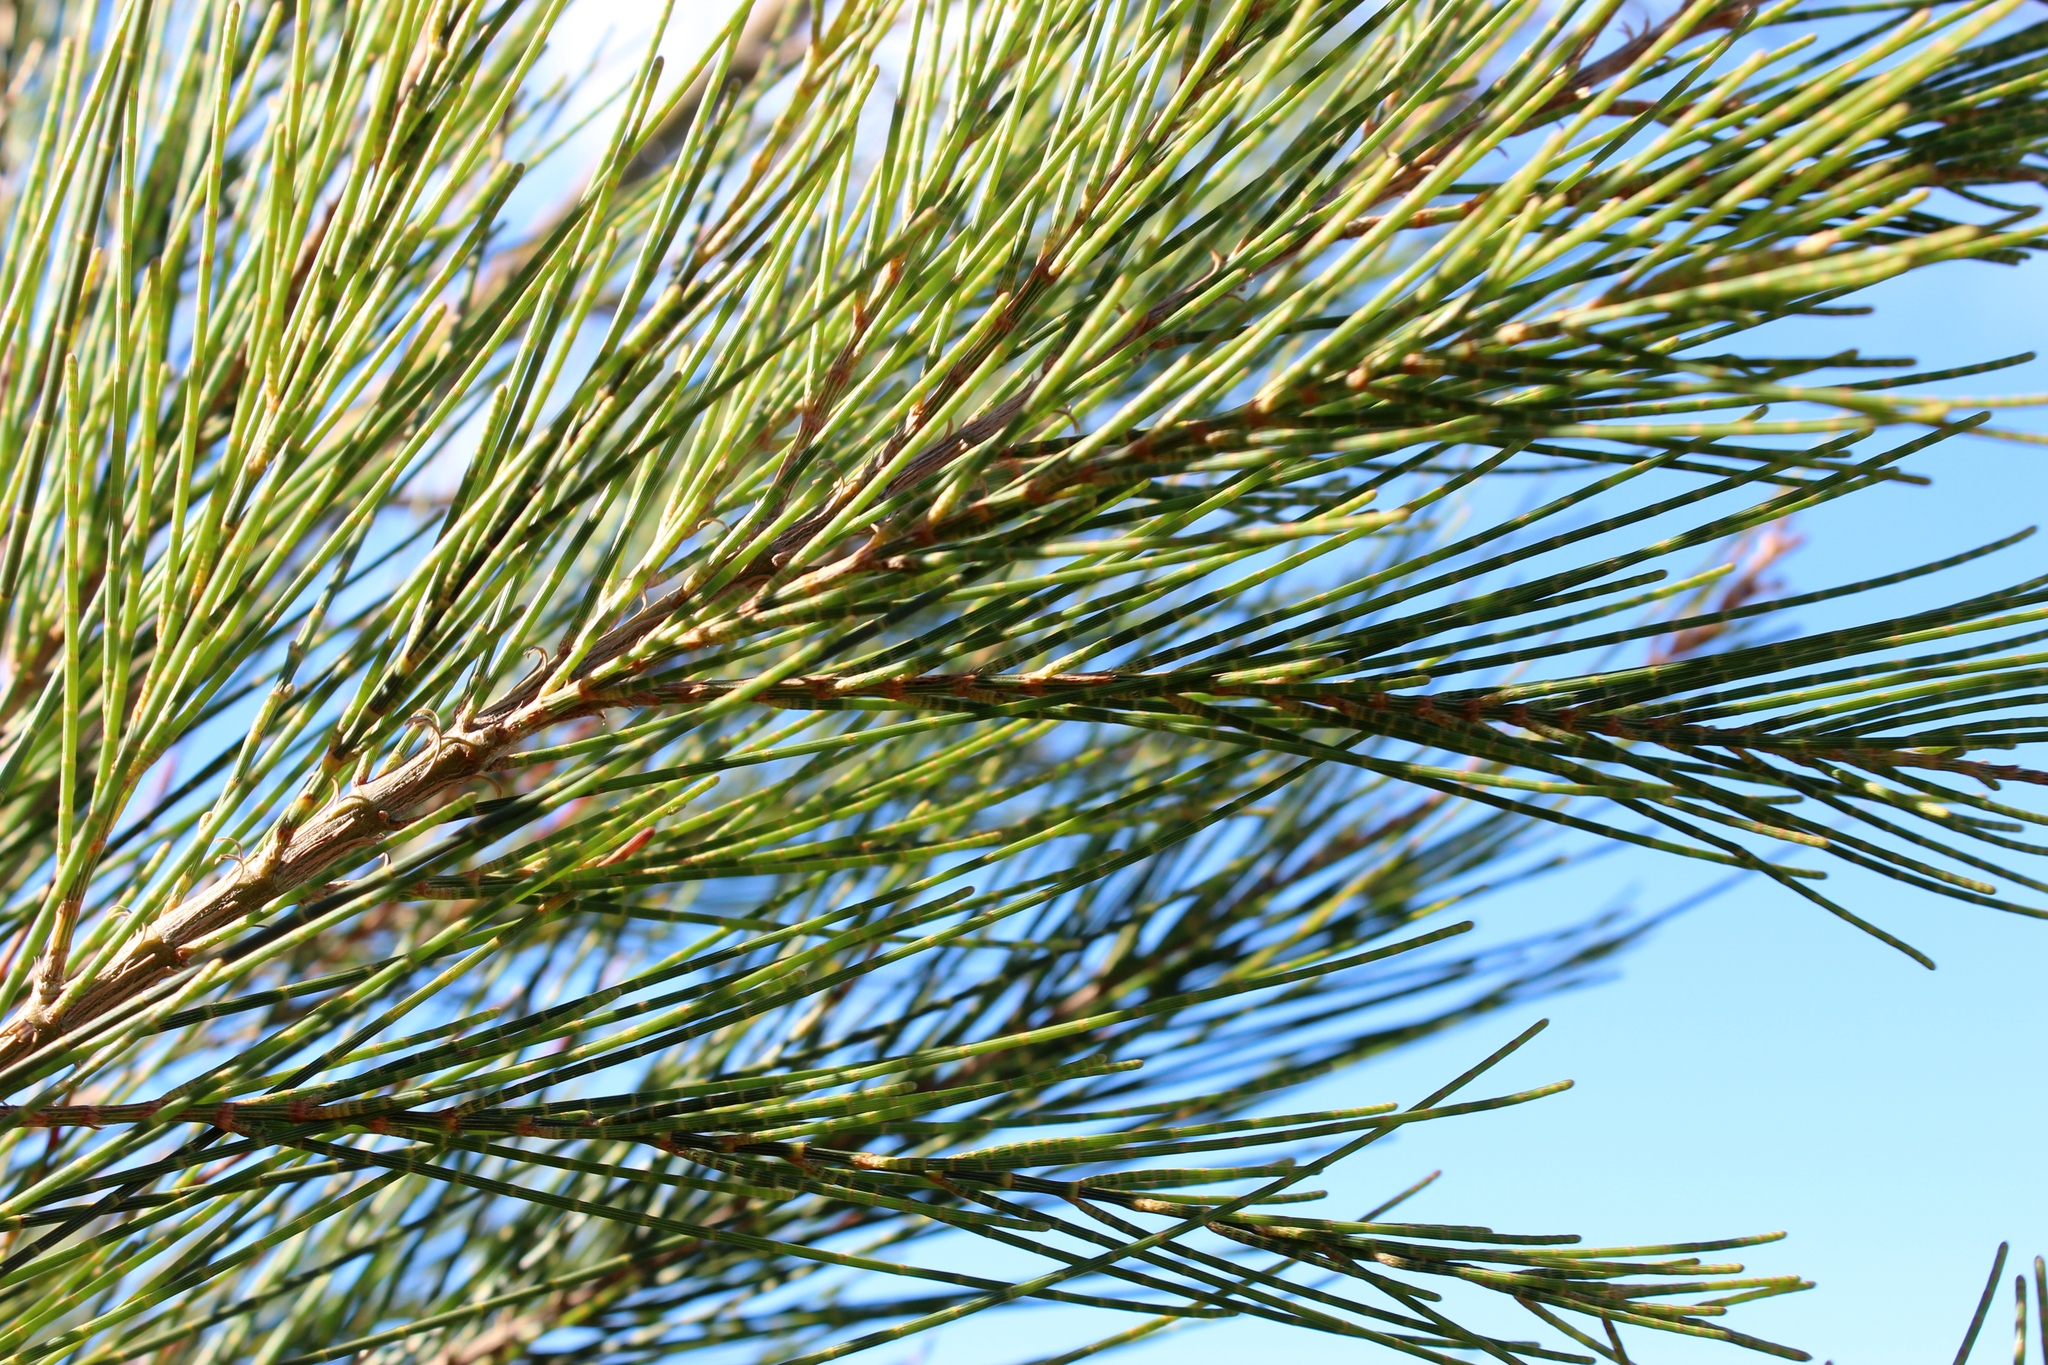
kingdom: Plantae
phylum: Tracheophyta
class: Magnoliopsida
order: Fagales
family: Casuarinaceae
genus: Casuarina
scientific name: Casuarina cunninghamiana
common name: River sheoak
